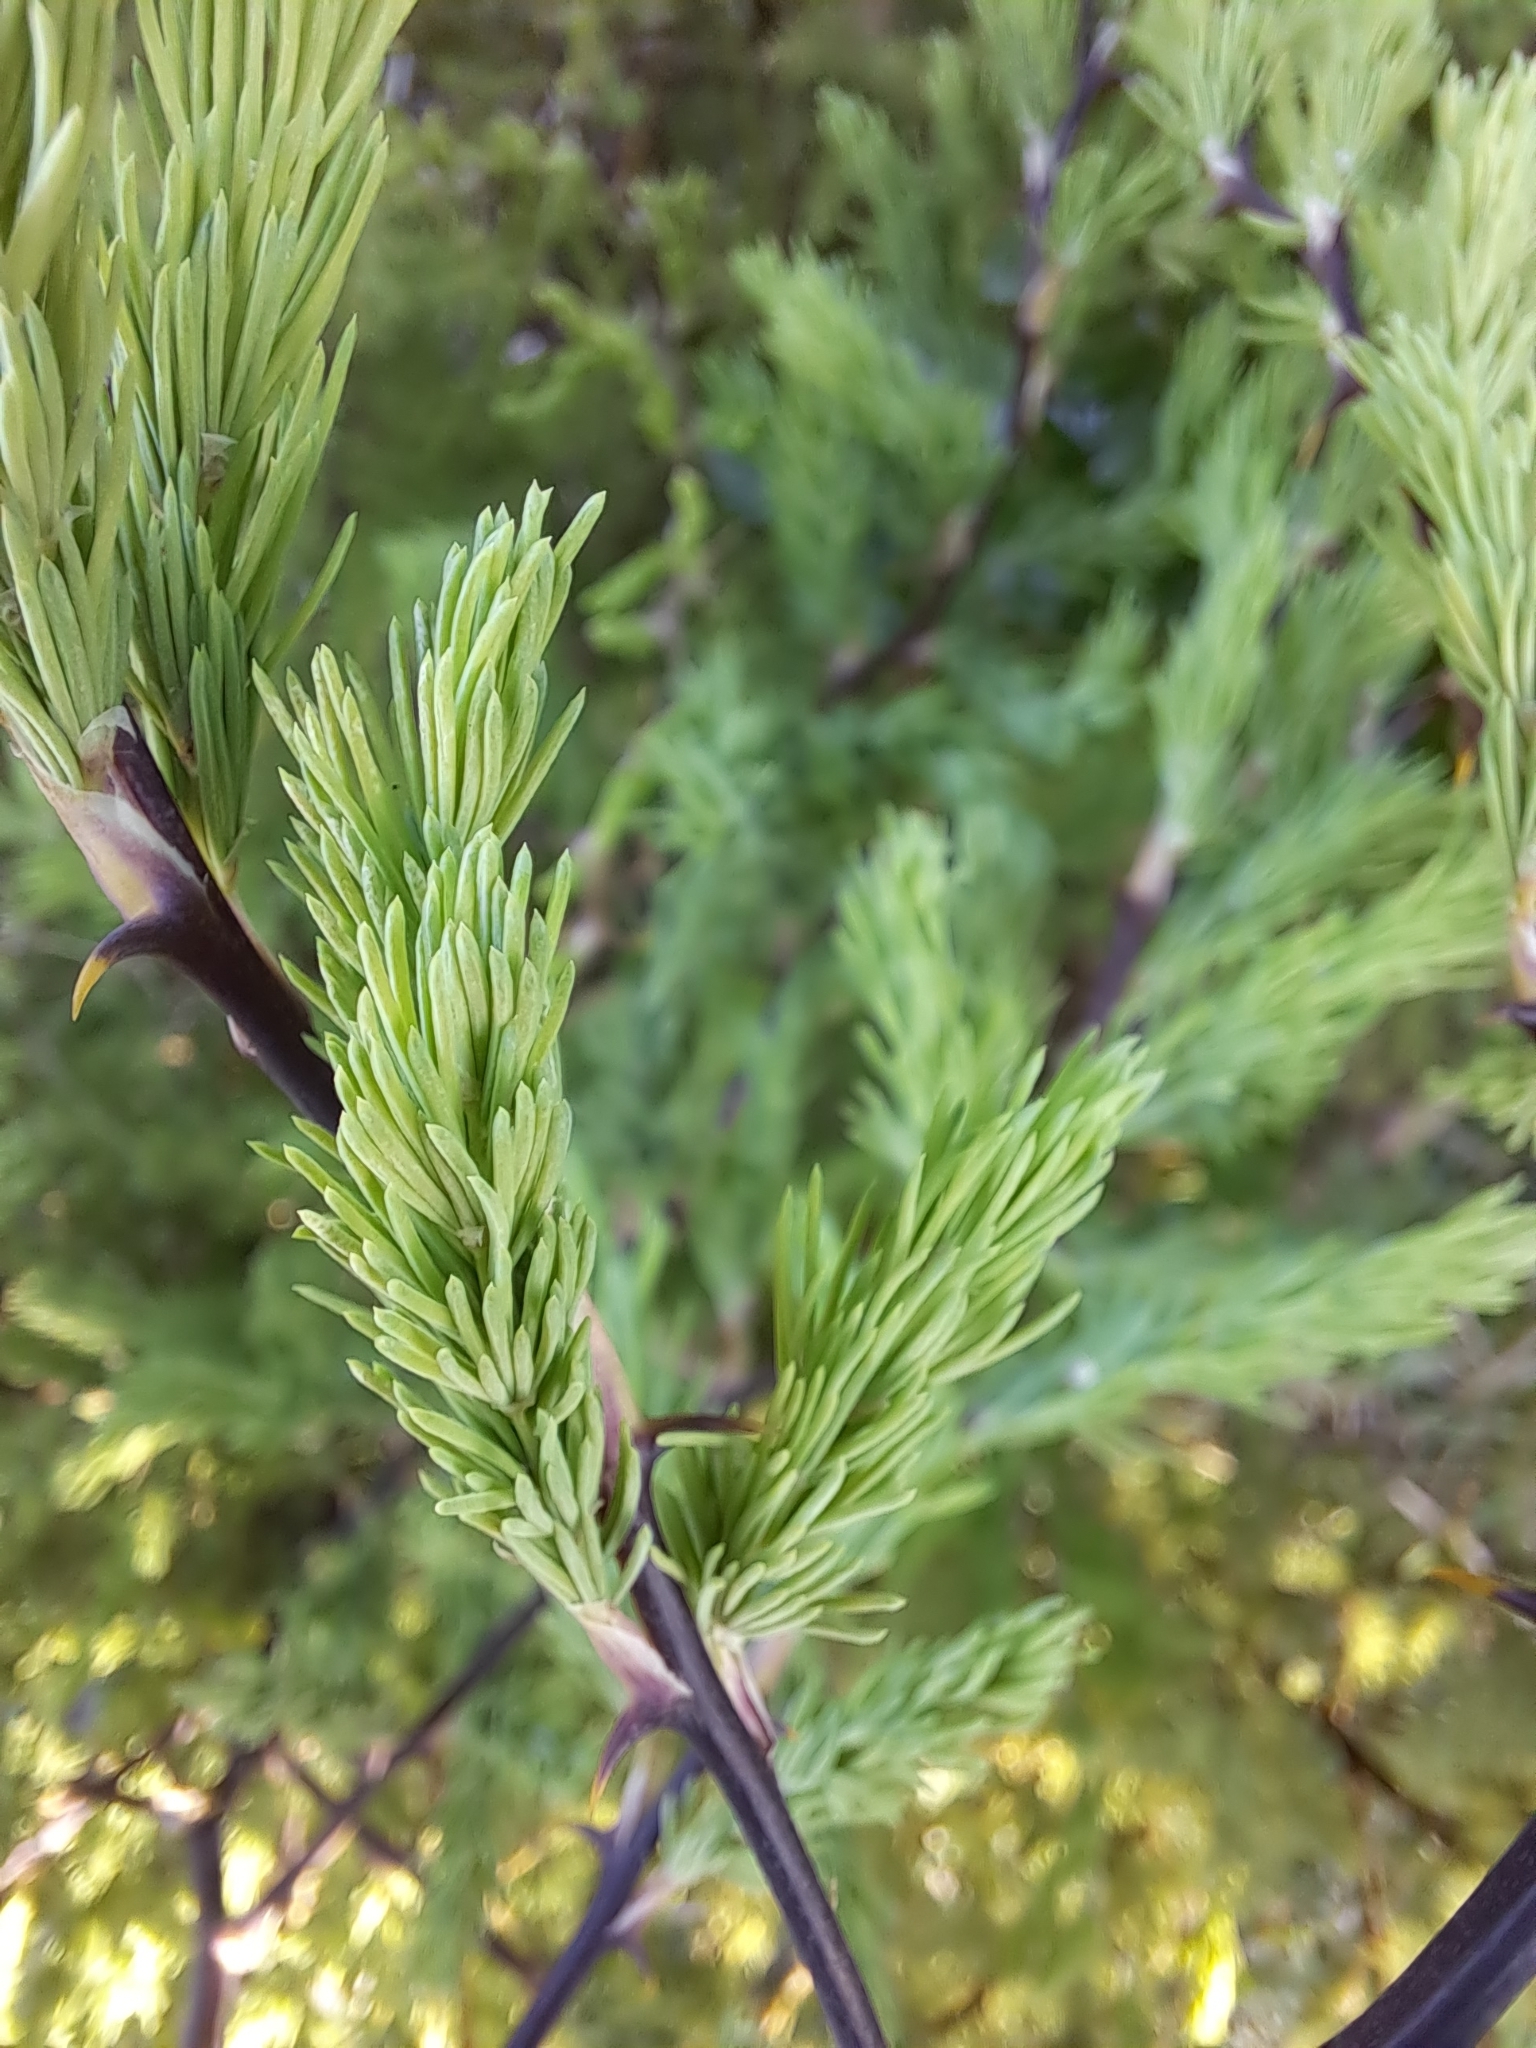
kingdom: Plantae
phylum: Tracheophyta
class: Liliopsida
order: Asparagales
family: Asparagaceae
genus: Asparagus
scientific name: Asparagus rubicundus
